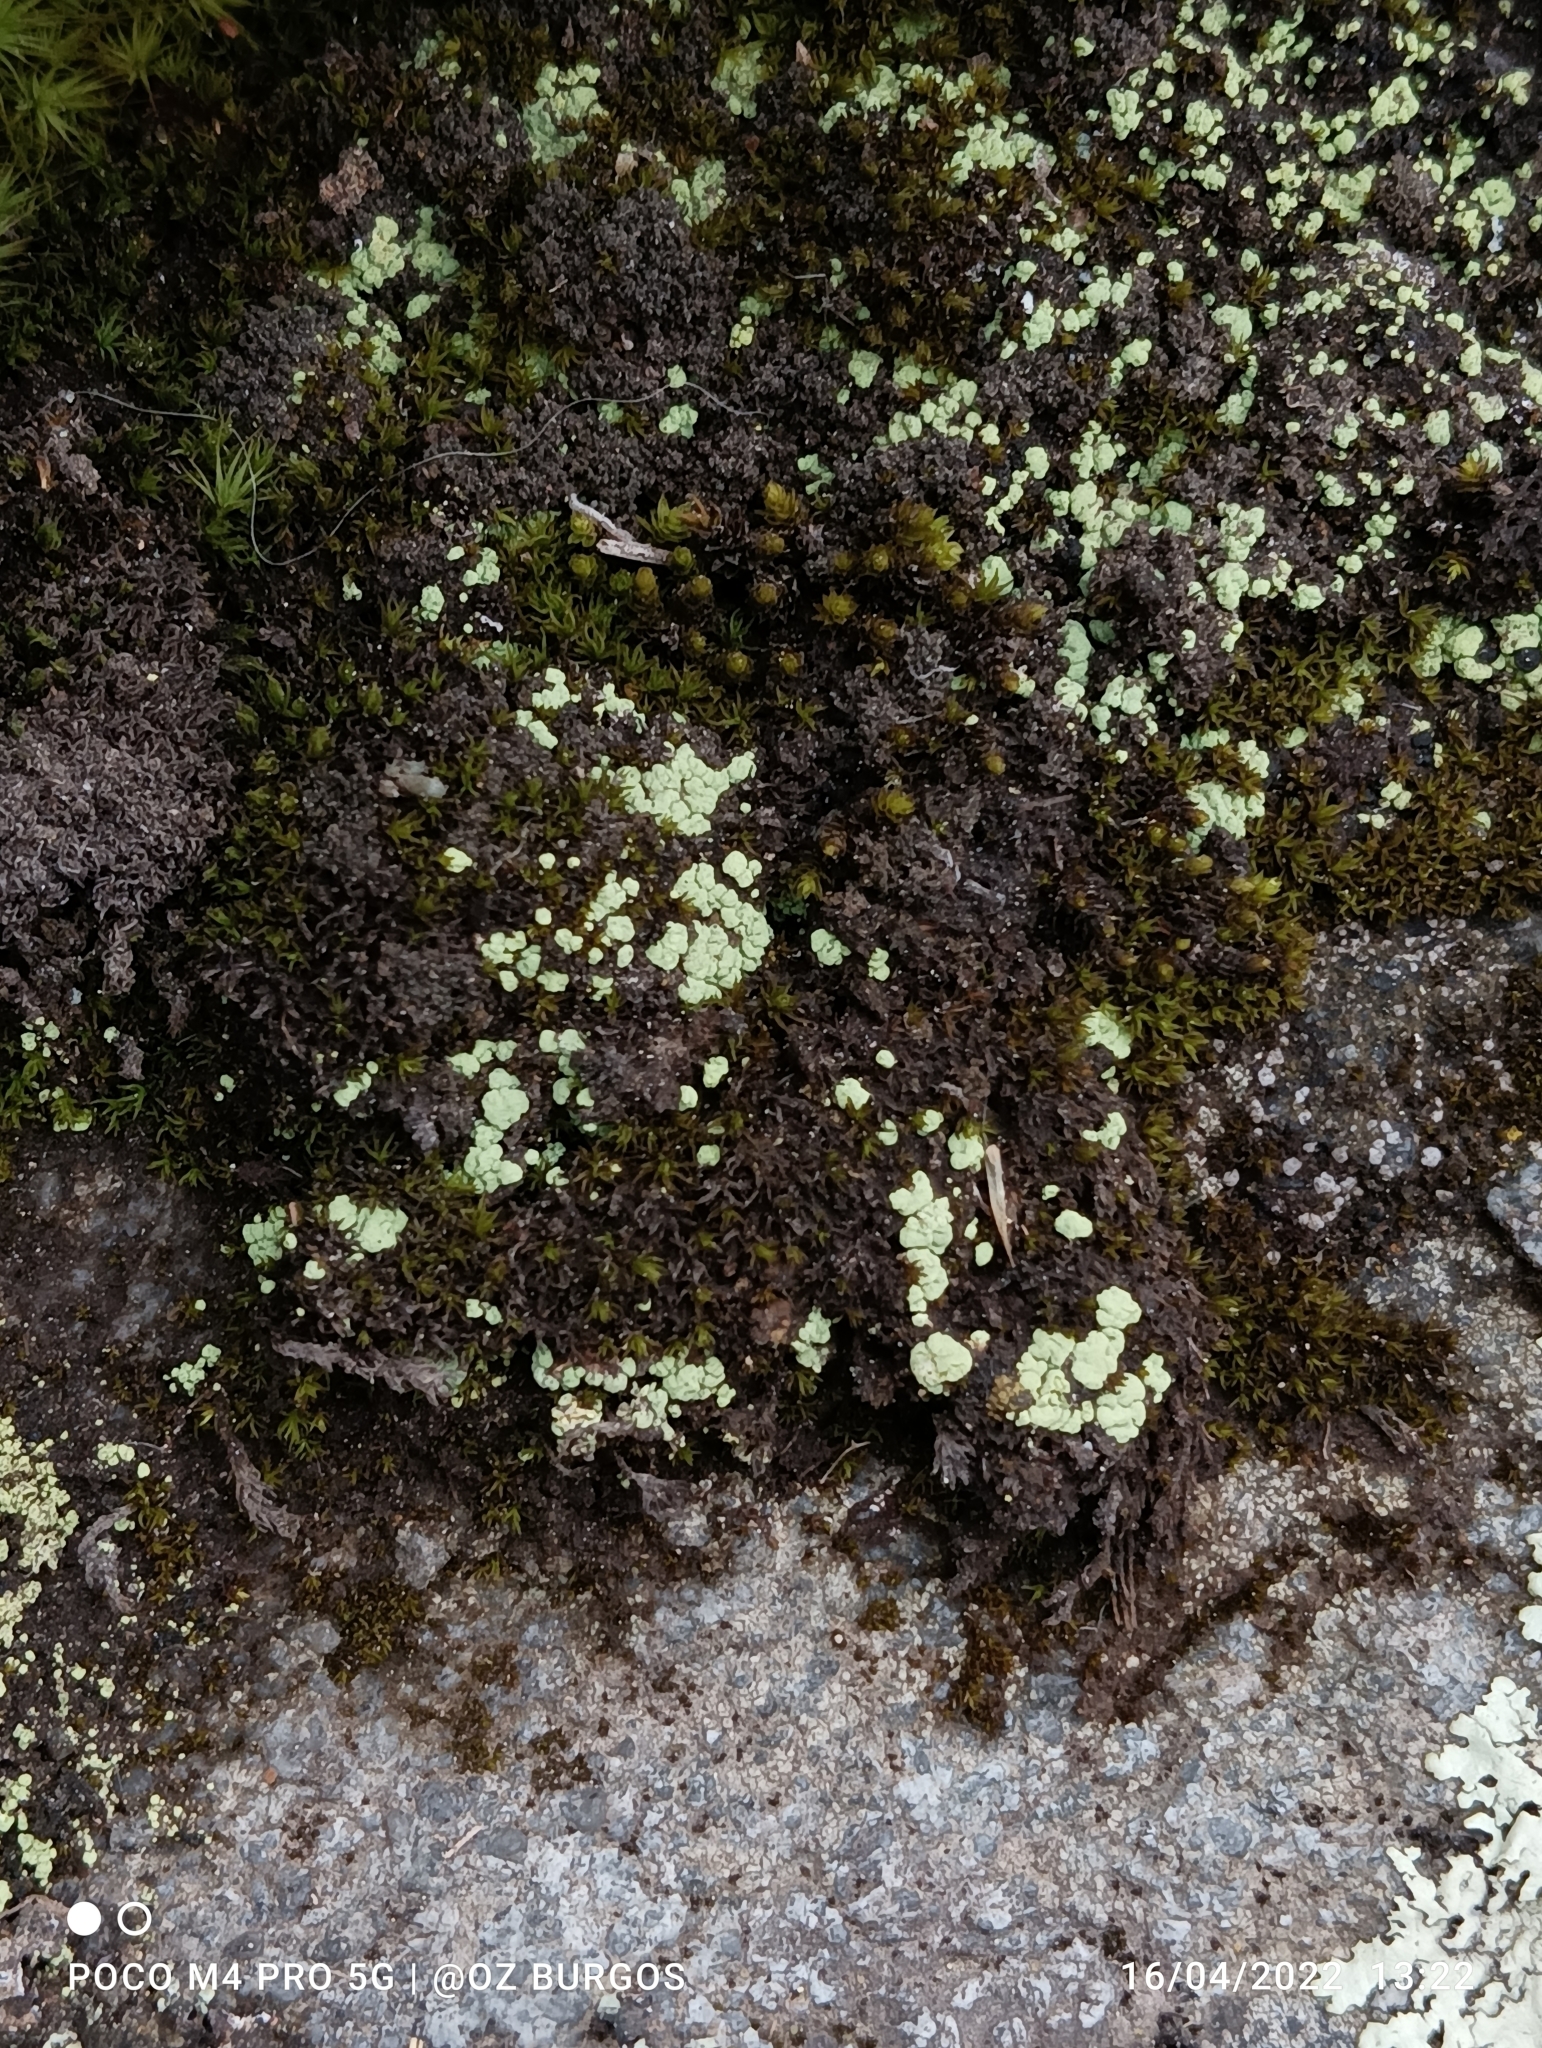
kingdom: Fungi
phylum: Ascomycota
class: Lecanoromycetes
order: Lecanorales
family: Parmeliaceae
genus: Flavopunctelia
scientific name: Flavopunctelia flaventior
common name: Speckled greenshield
